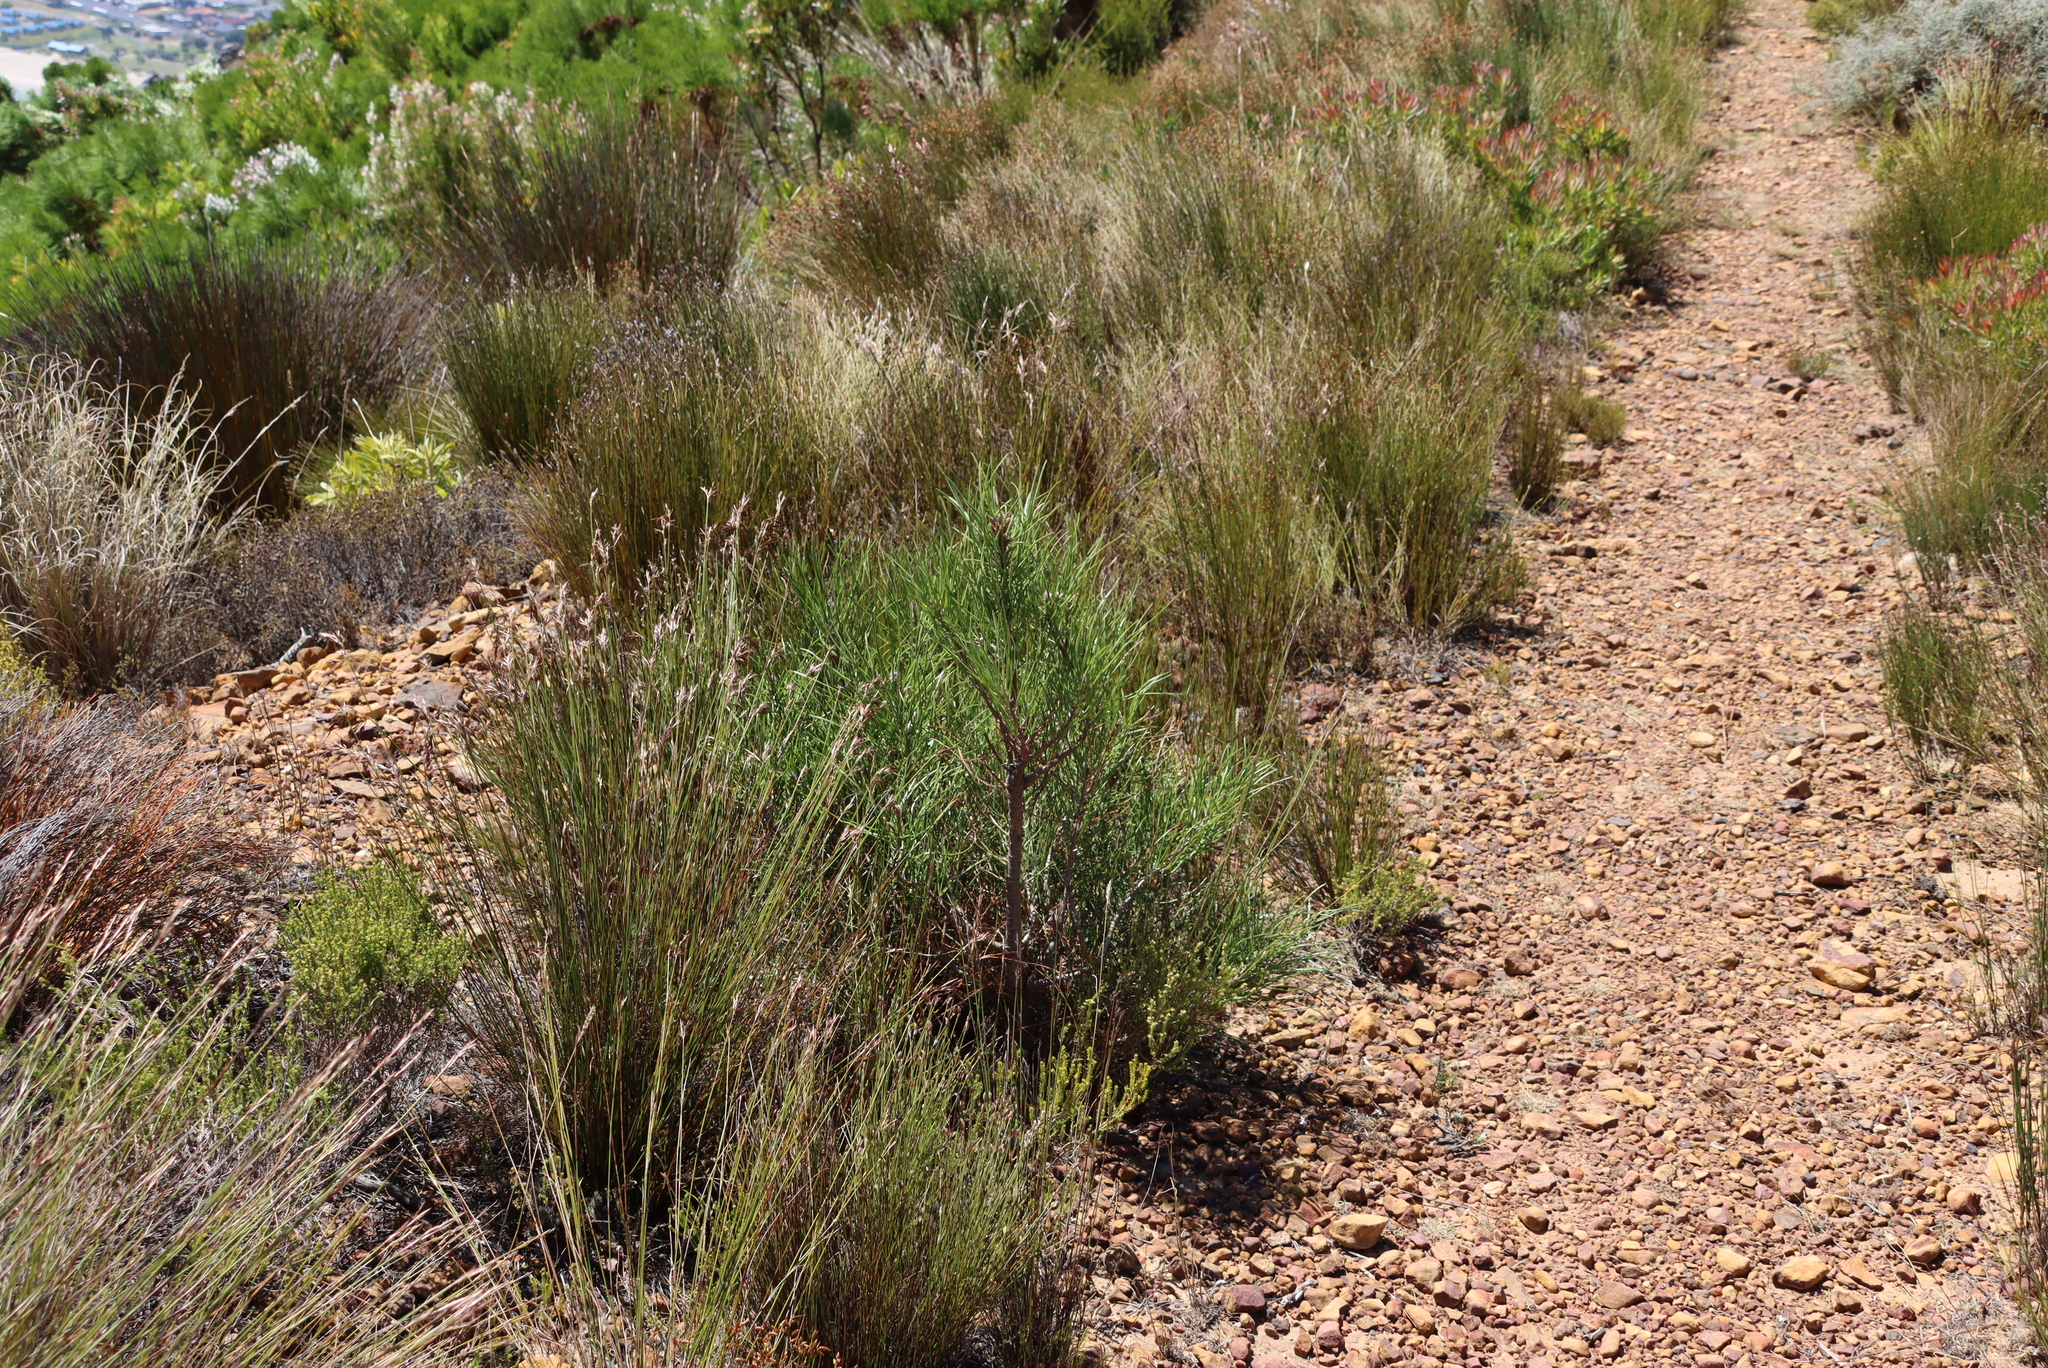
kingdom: Plantae
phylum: Tracheophyta
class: Pinopsida
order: Pinales
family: Pinaceae
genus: Pinus
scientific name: Pinus pinaster
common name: Maritime pine
